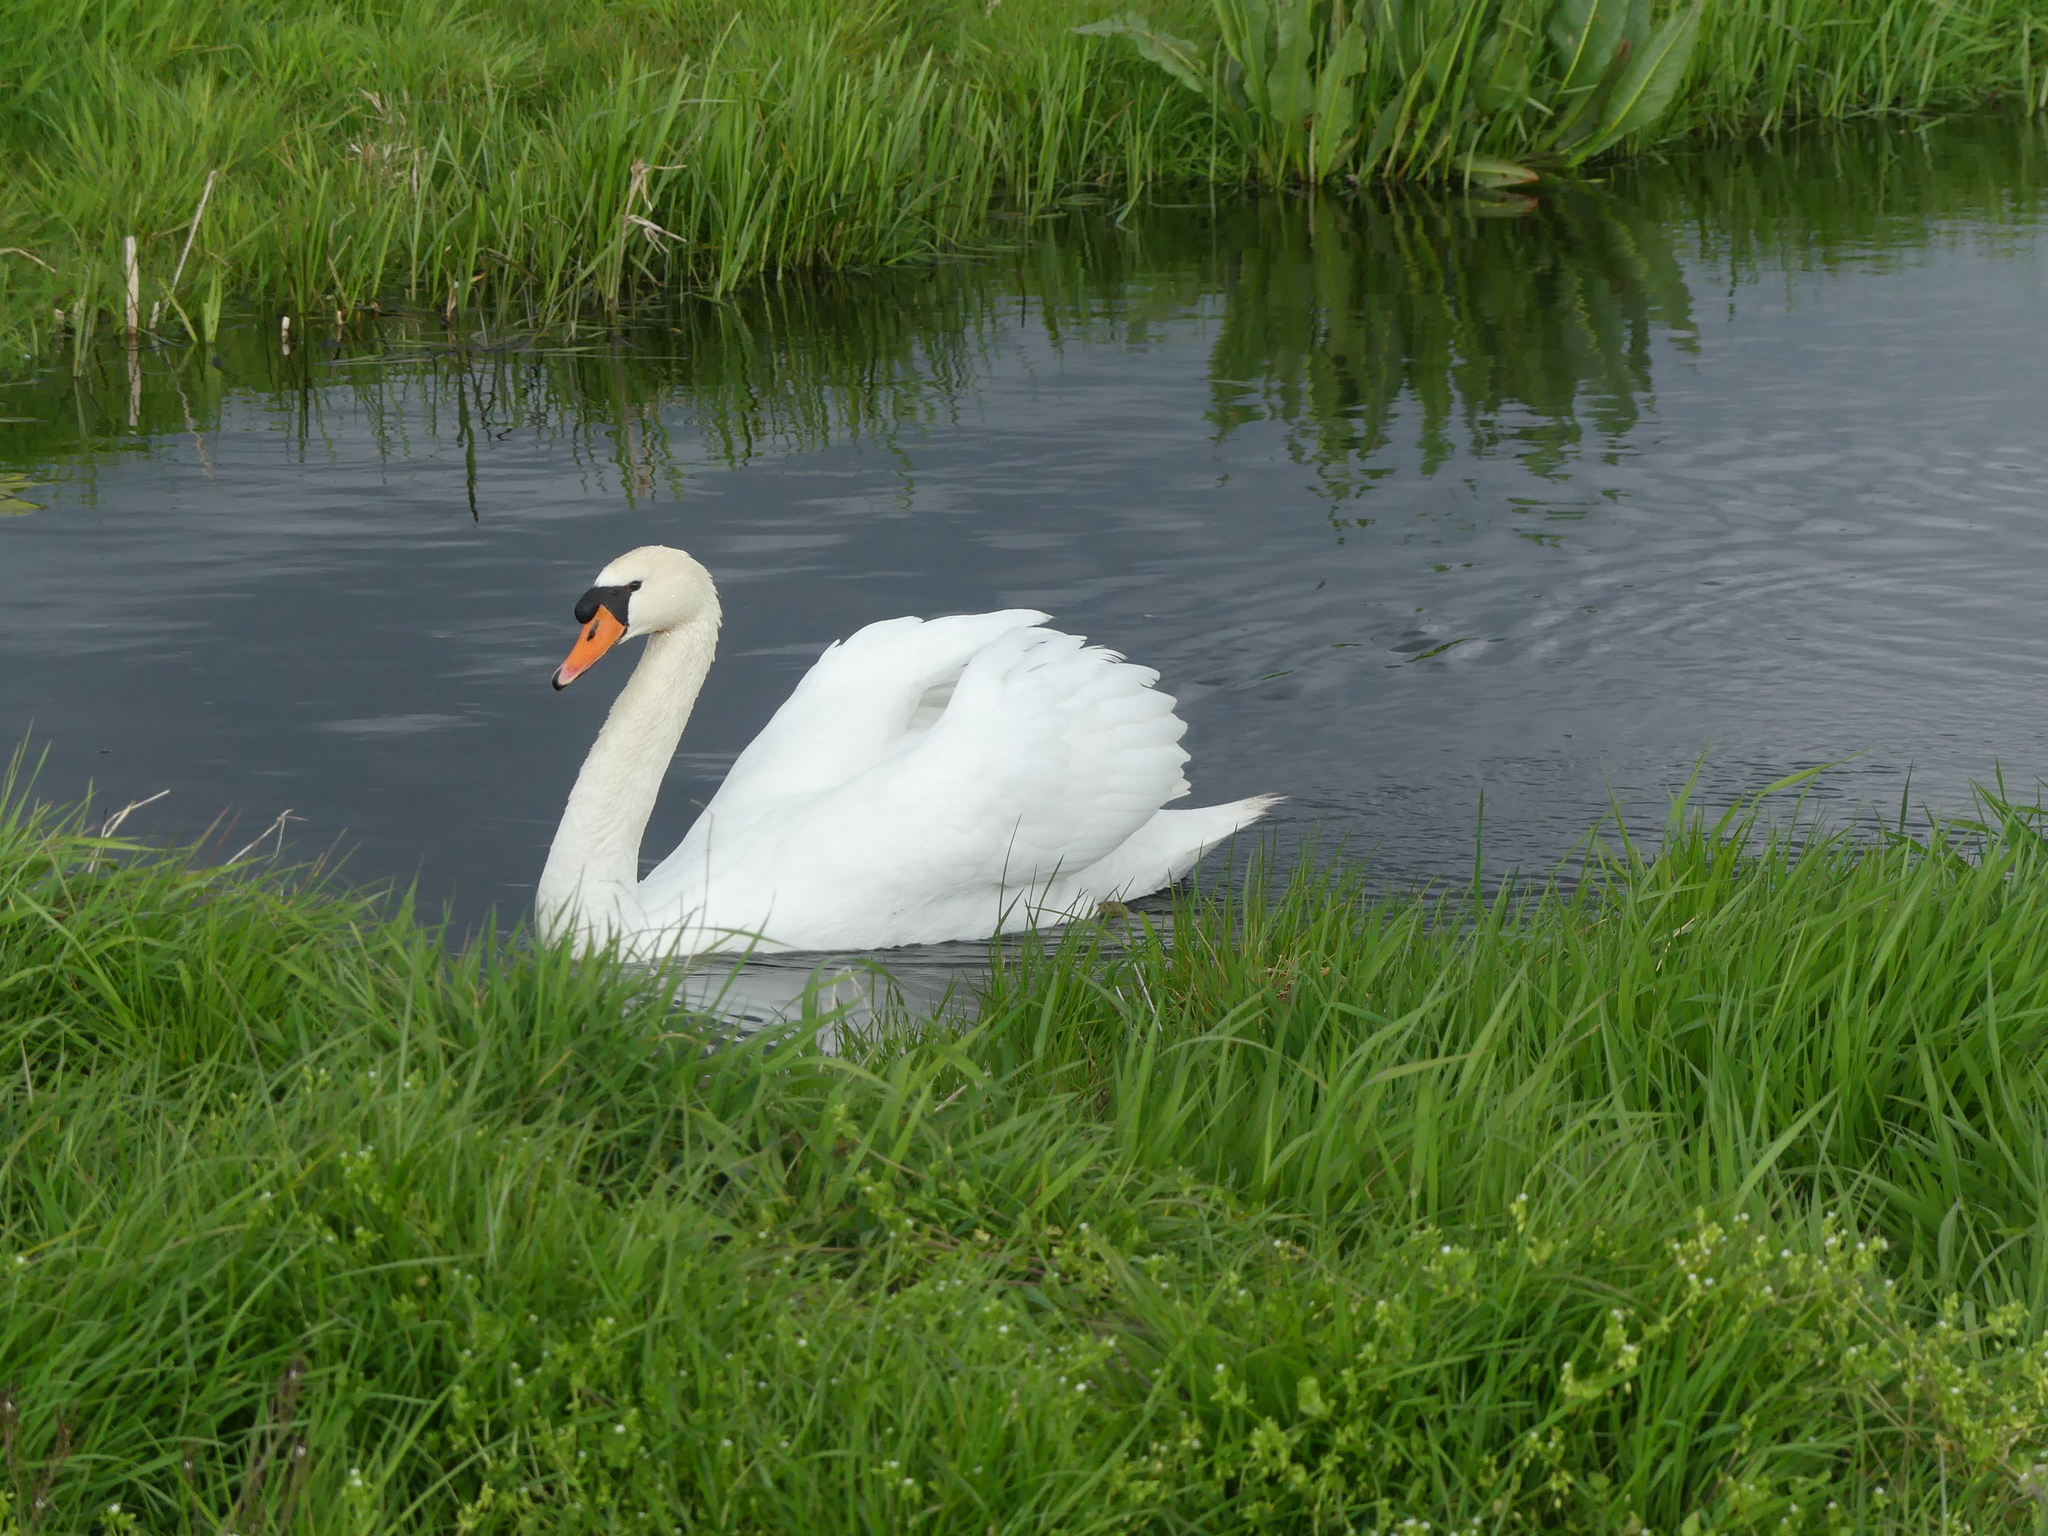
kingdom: Animalia
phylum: Chordata
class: Aves
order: Anseriformes
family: Anatidae
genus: Cygnus
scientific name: Cygnus olor
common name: Mute swan
